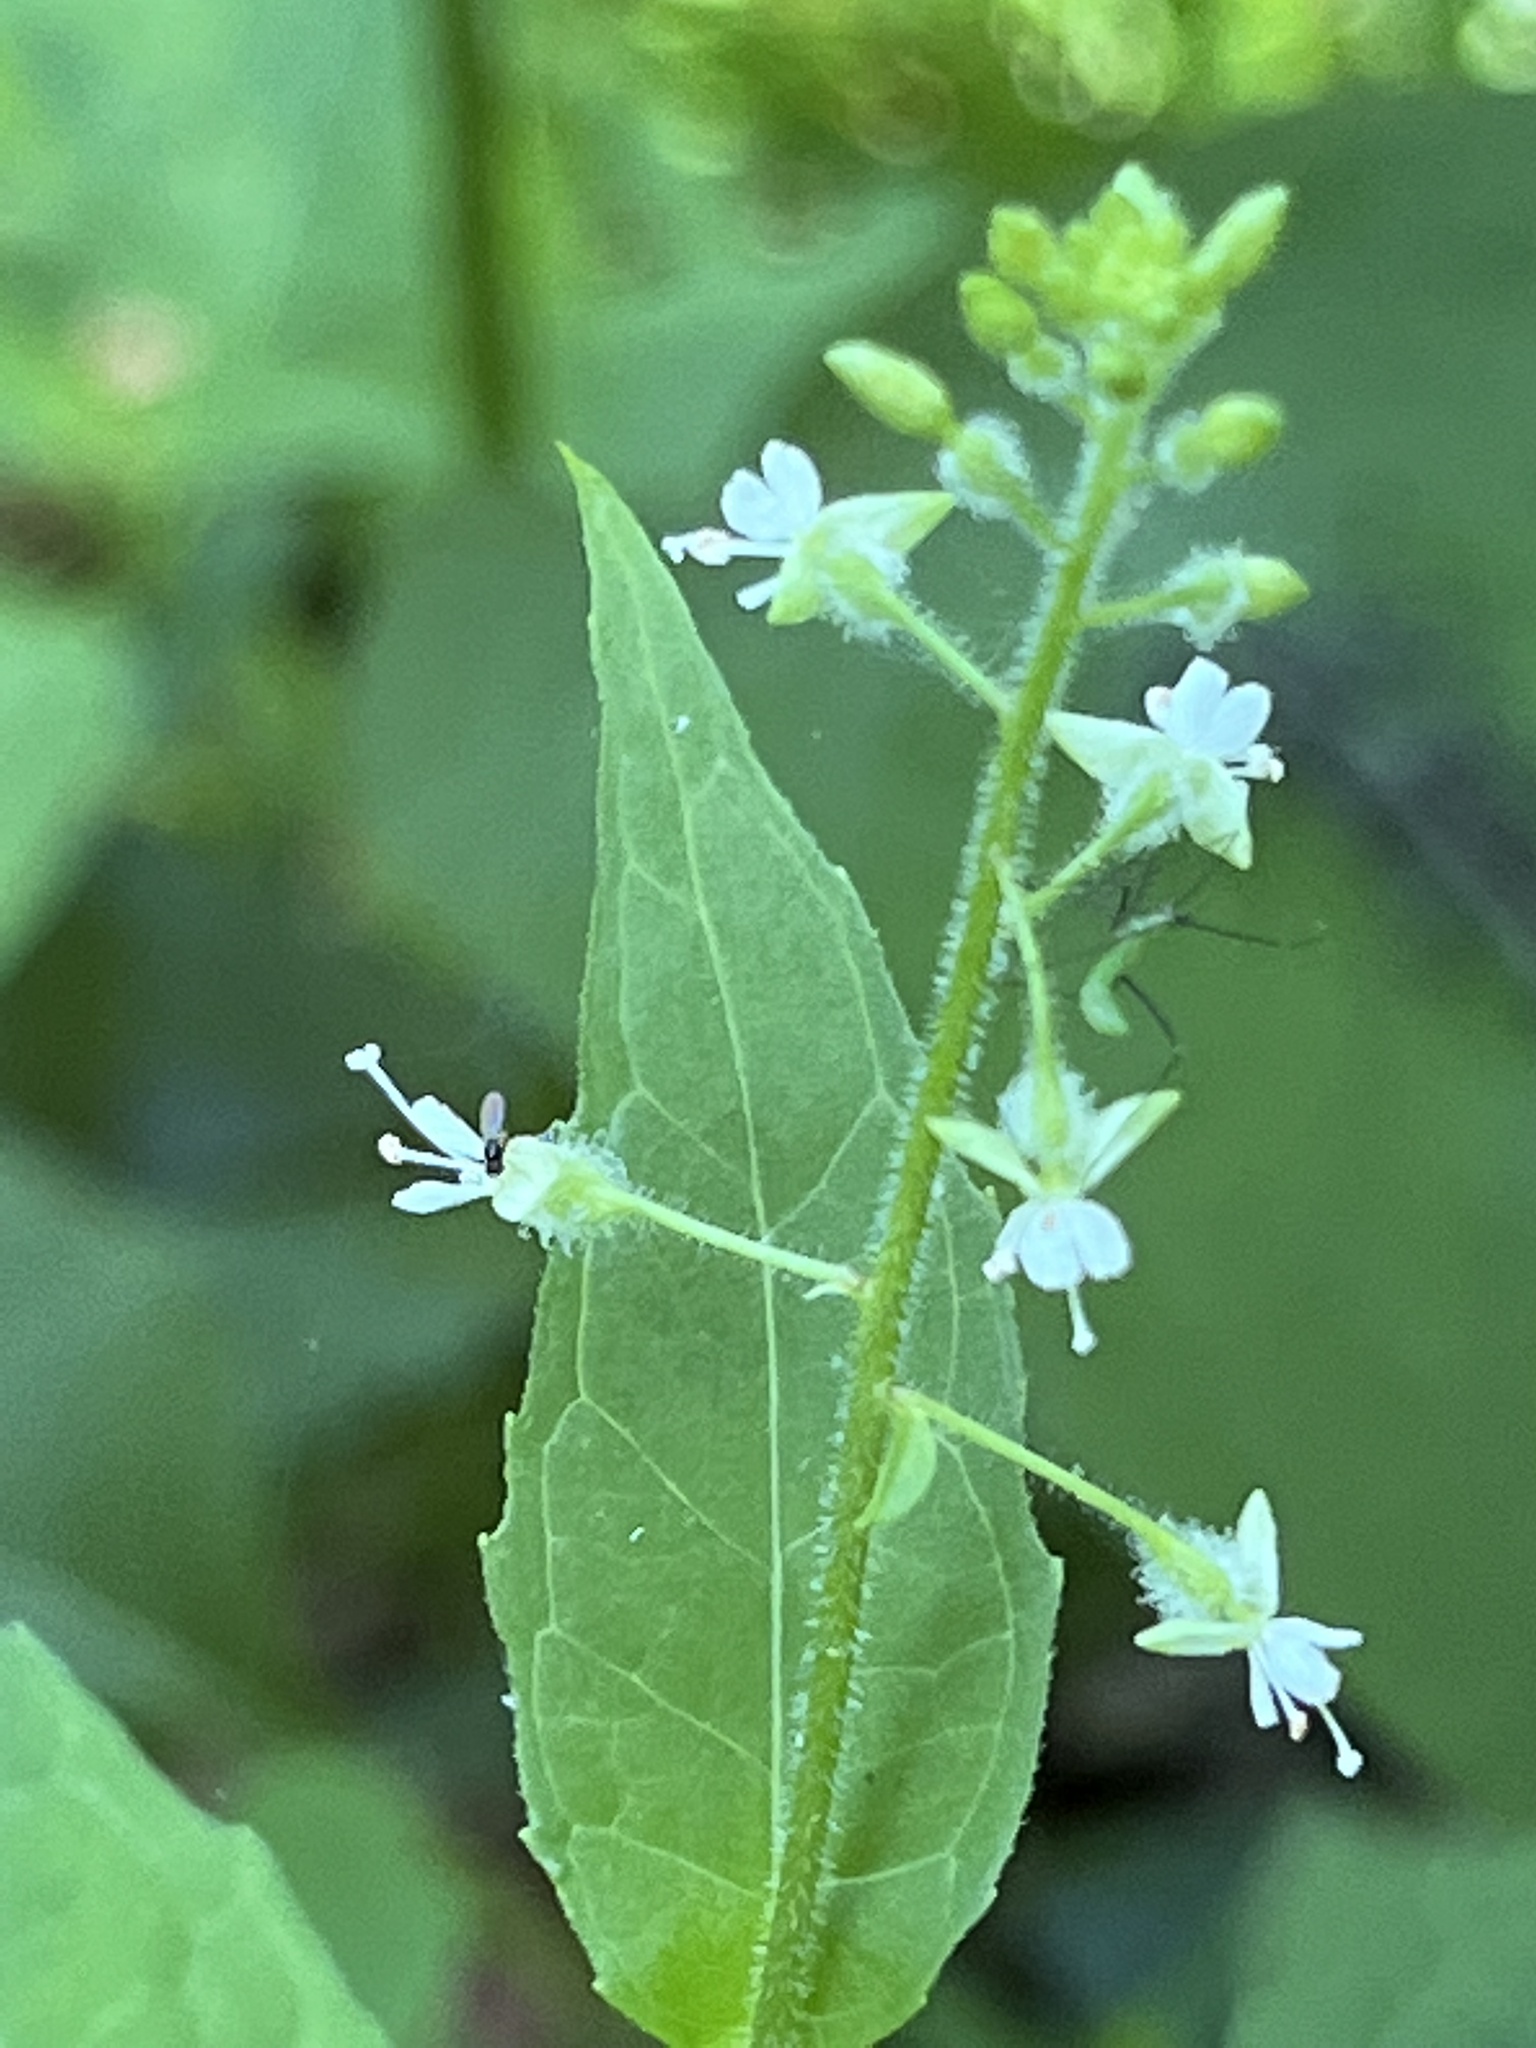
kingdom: Plantae
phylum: Tracheophyta
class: Magnoliopsida
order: Myrtales
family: Onagraceae
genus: Circaea
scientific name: Circaea canadensis
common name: Broad-leaved enchanter's nightshade
